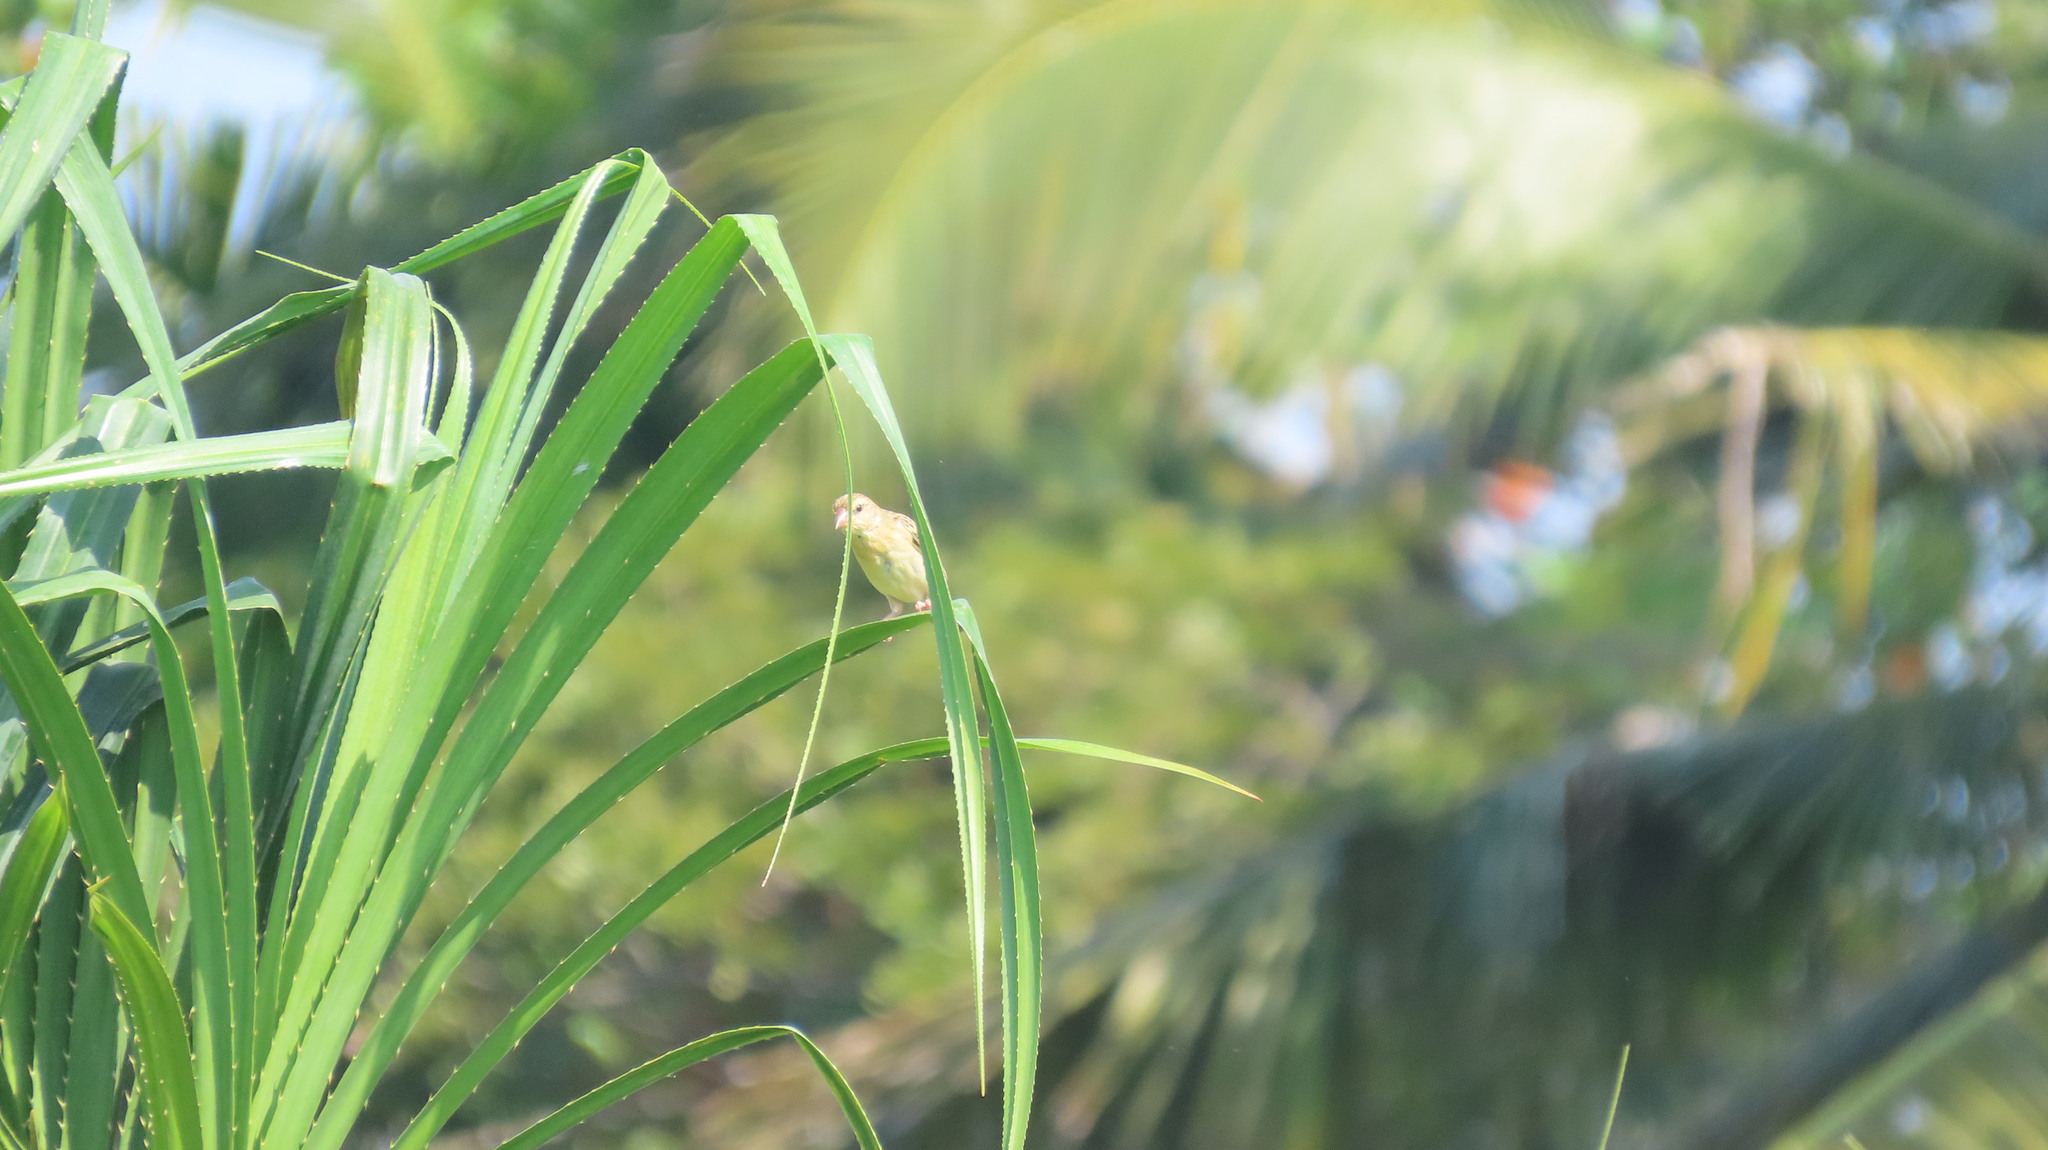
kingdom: Animalia
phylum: Chordata
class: Aves
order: Passeriformes
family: Ploceidae
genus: Ploceus
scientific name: Ploceus philippinus
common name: Baya weaver
